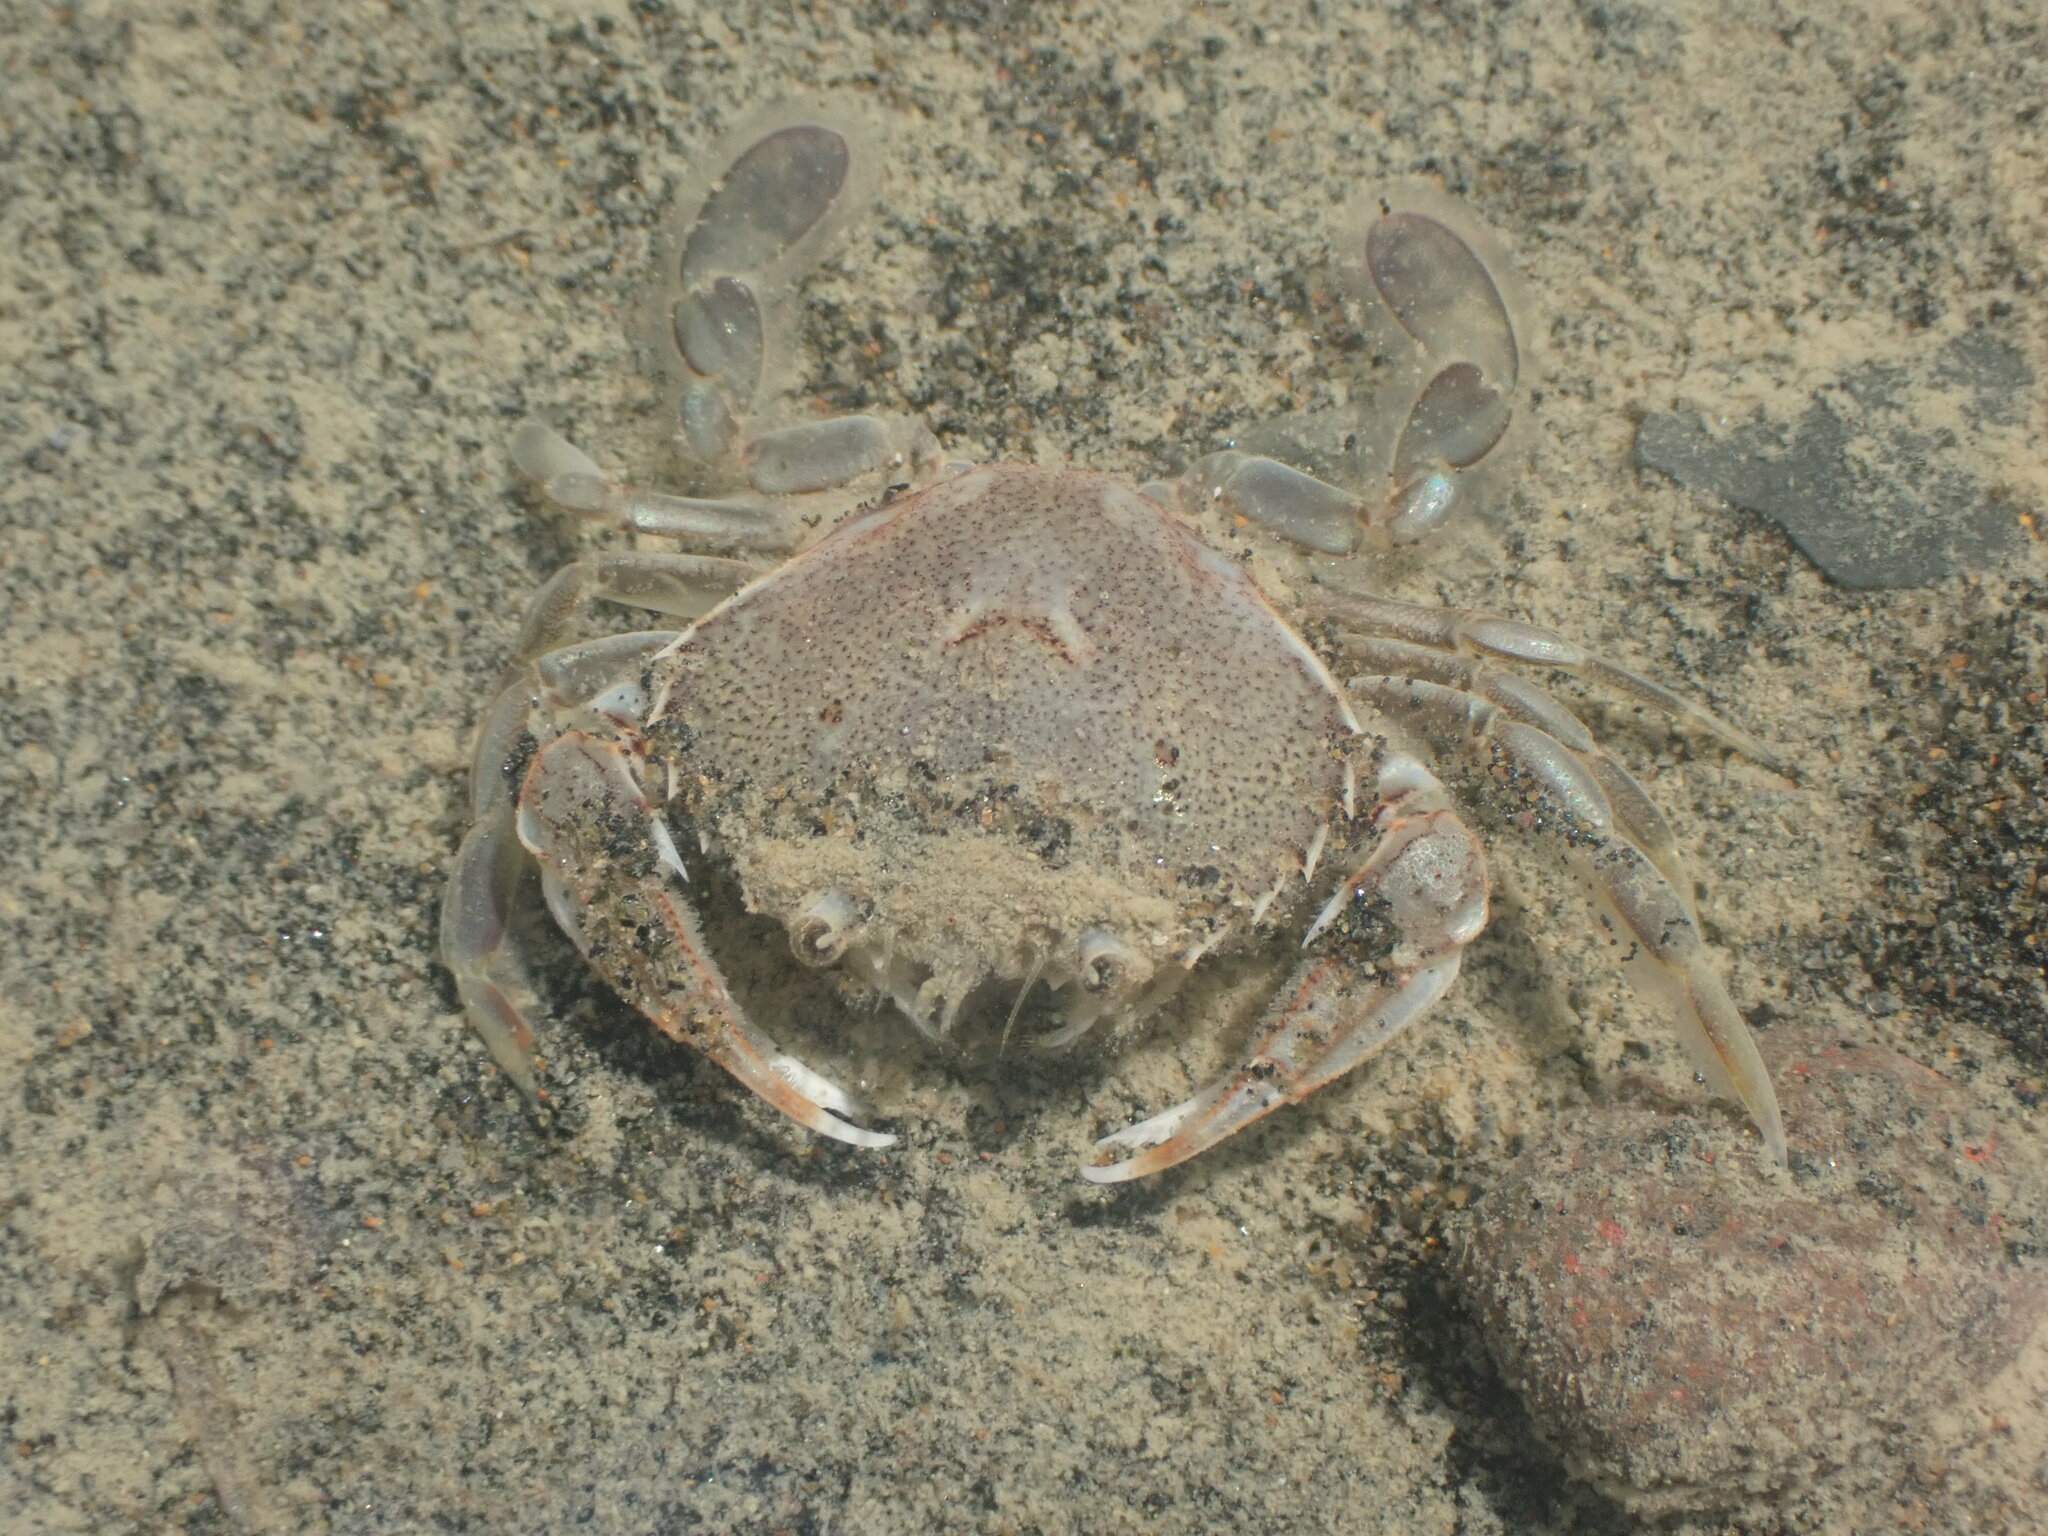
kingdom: Animalia
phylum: Arthropoda
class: Malacostraca
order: Decapoda
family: Ovalipidae
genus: Ovalipes
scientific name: Ovalipes catharus
